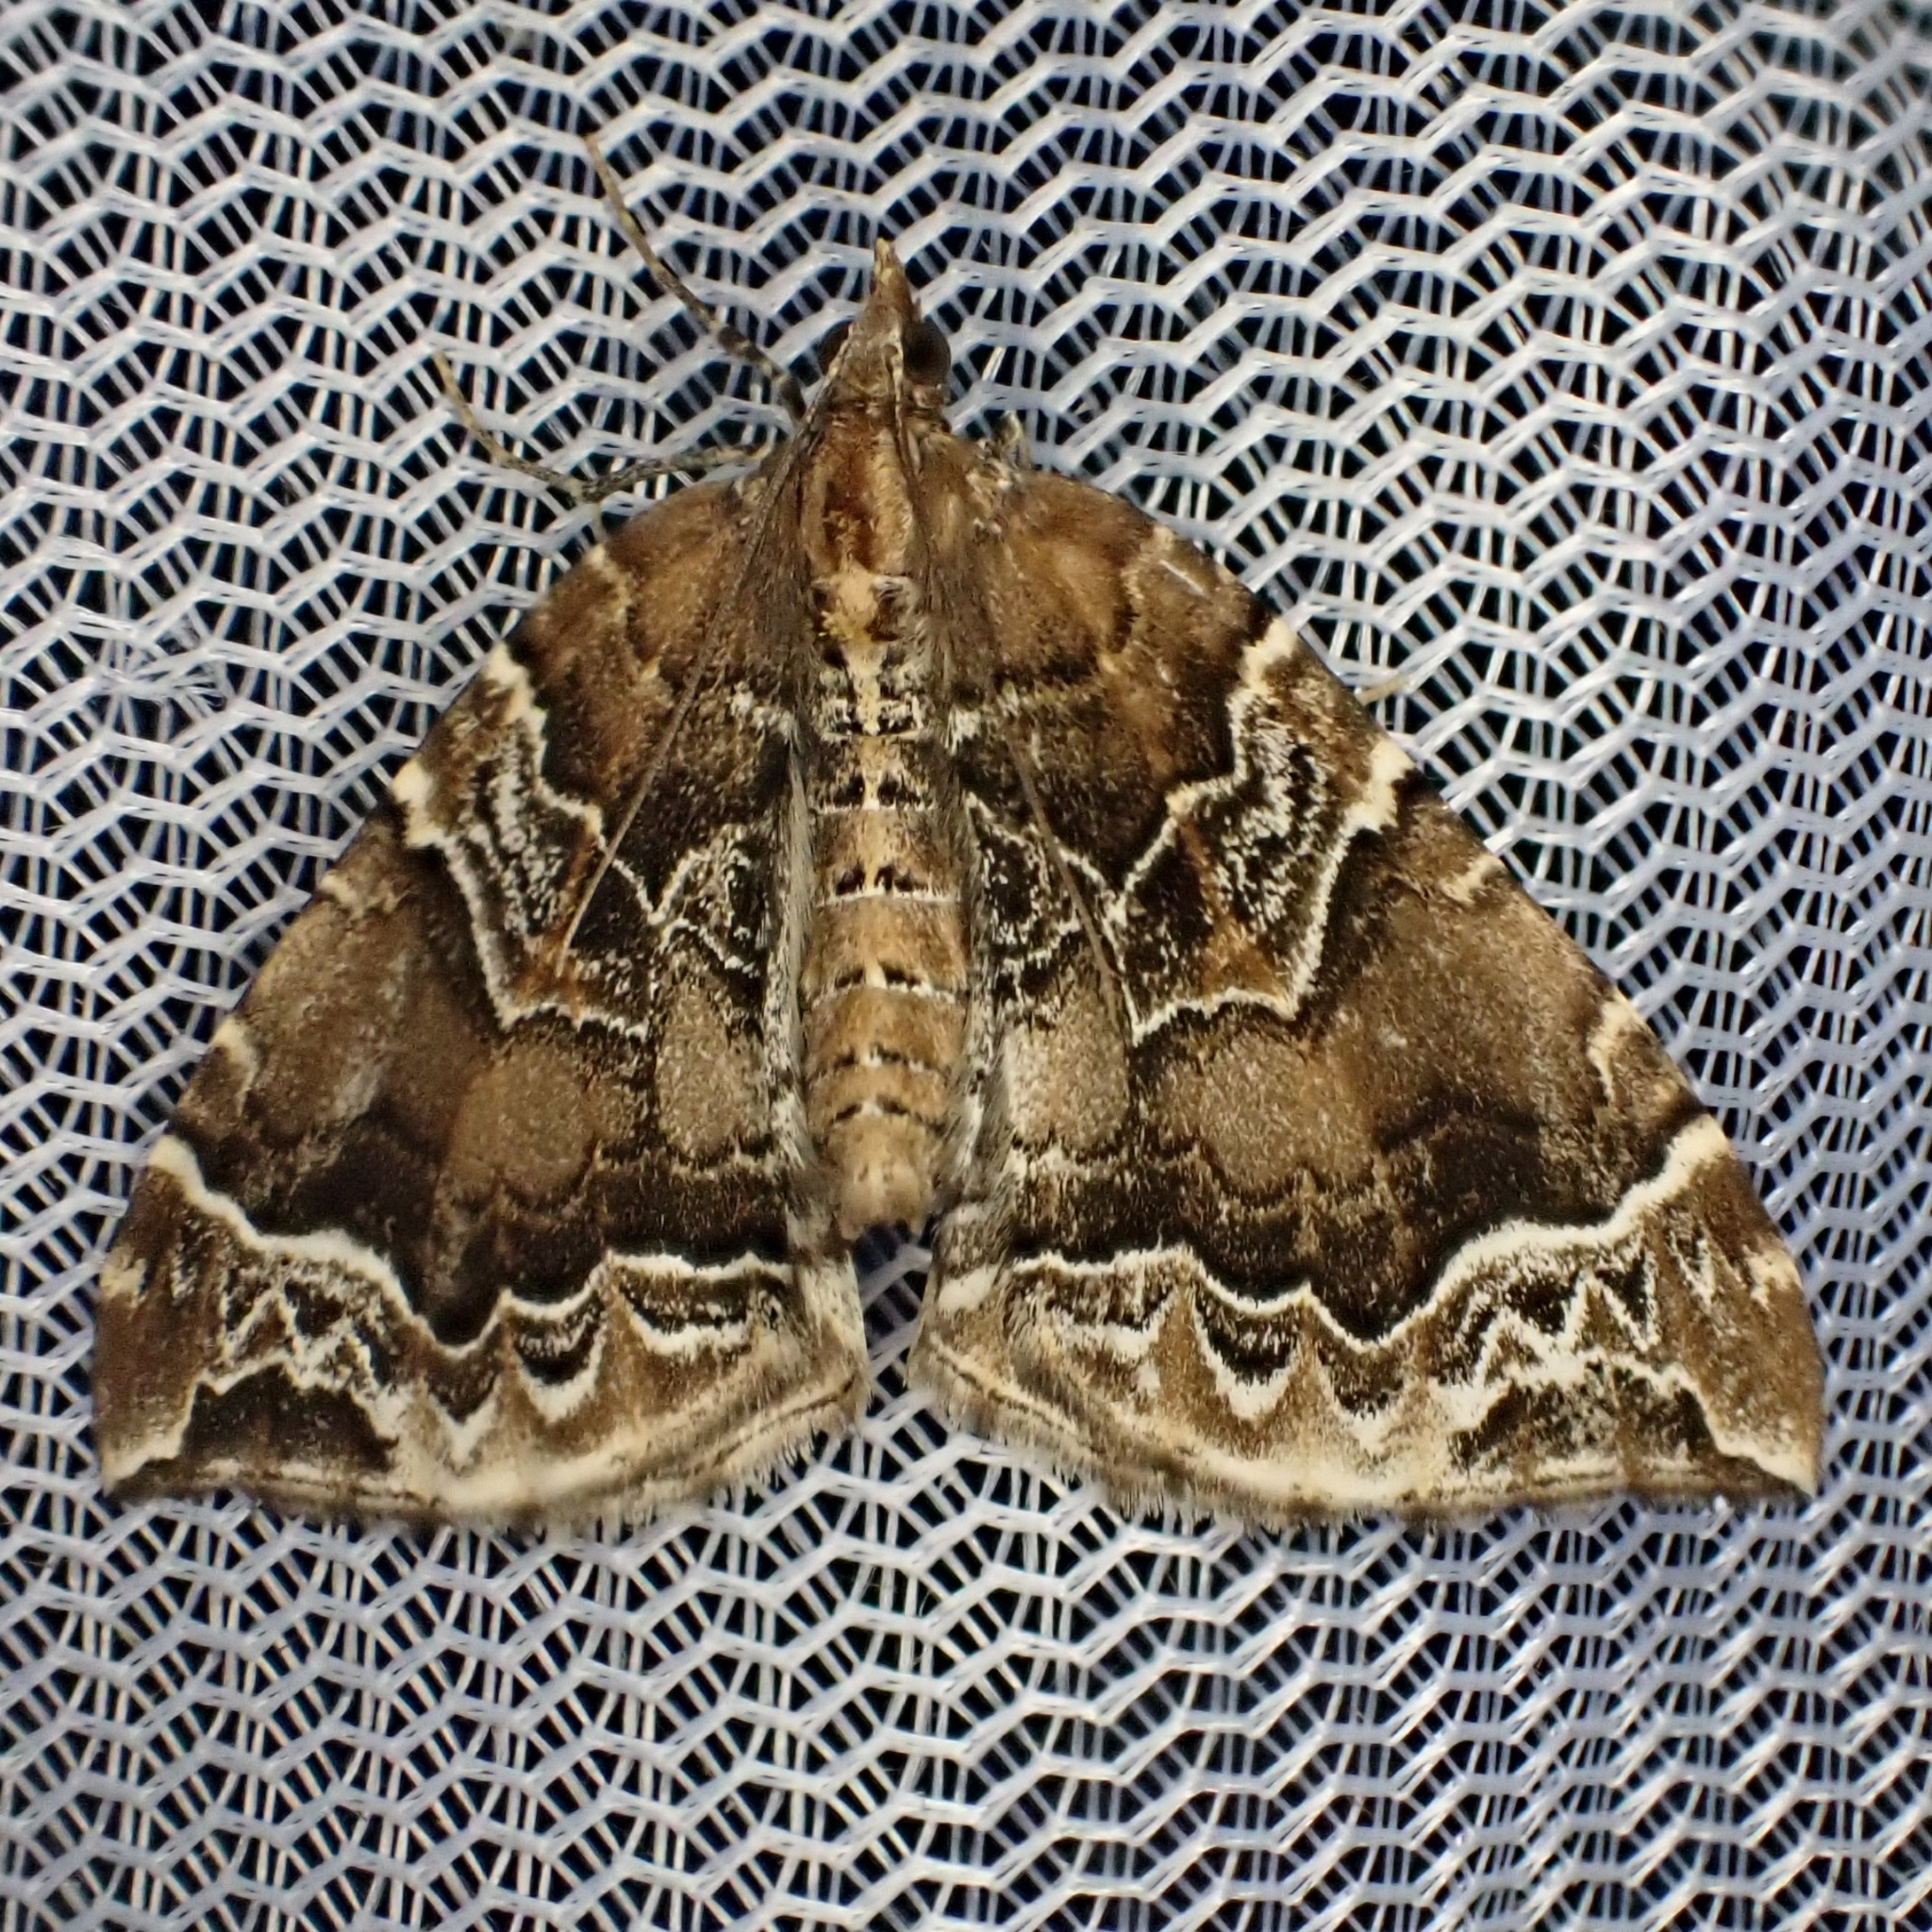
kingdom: Animalia
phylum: Arthropoda
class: Insecta
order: Lepidoptera
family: Geometridae
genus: Eulithis
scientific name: Eulithis prunata
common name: Phoenix
